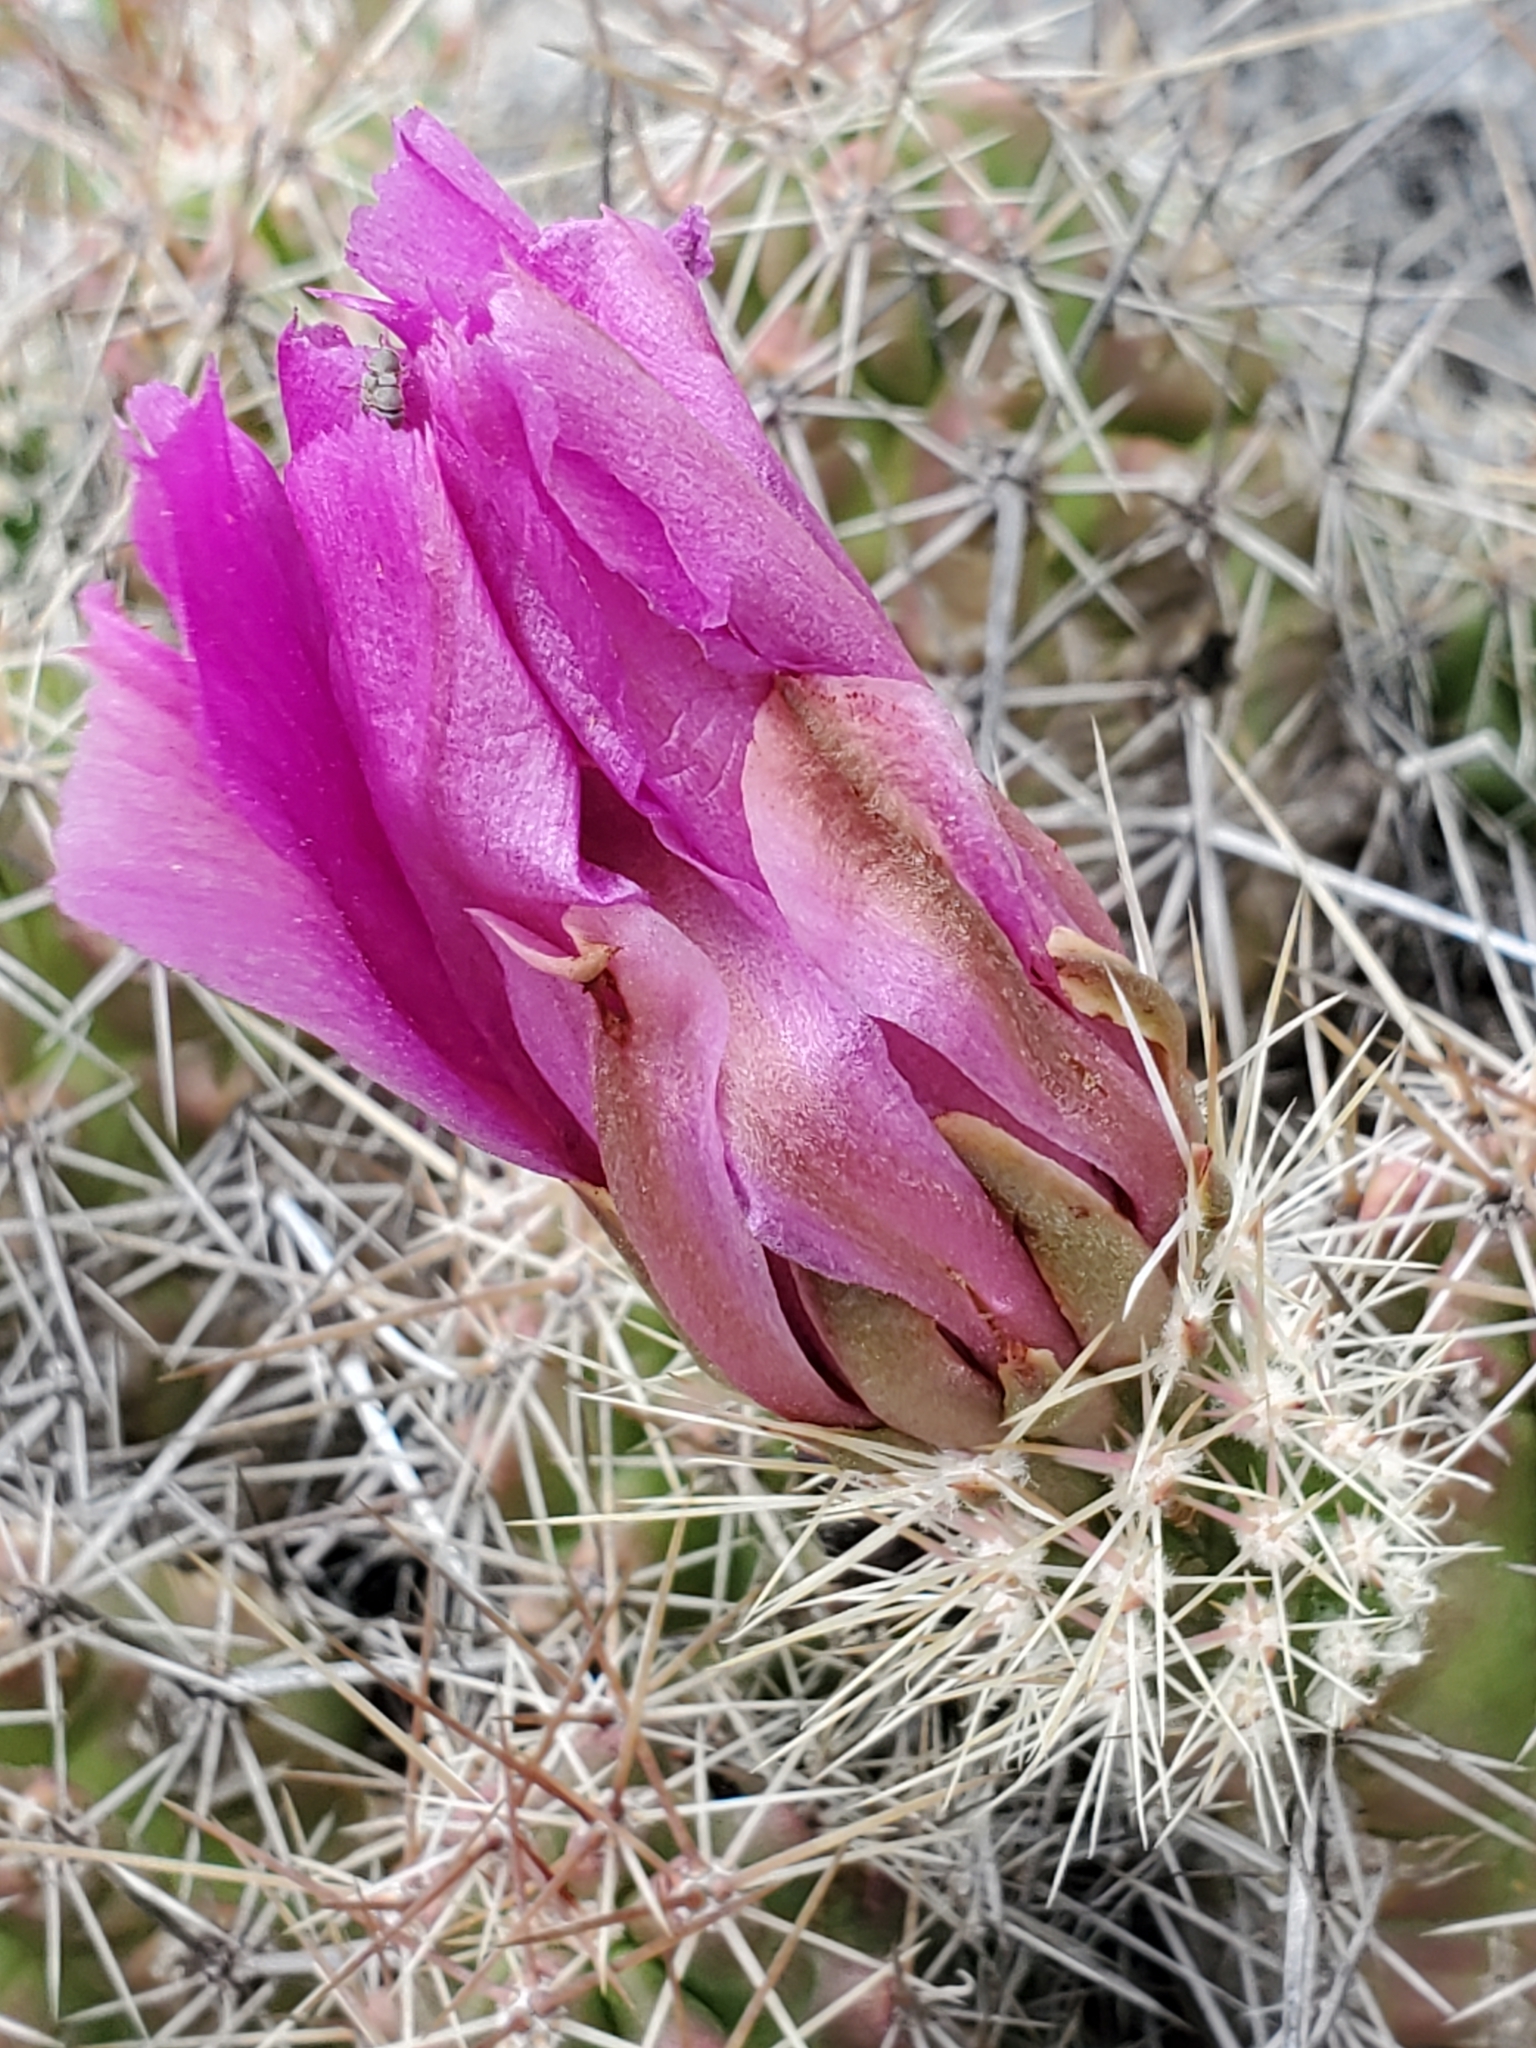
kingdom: Plantae
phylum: Tracheophyta
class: Magnoliopsida
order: Caryophyllales
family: Cactaceae
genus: Echinocereus
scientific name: Echinocereus enneacanthus
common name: Pitaya
